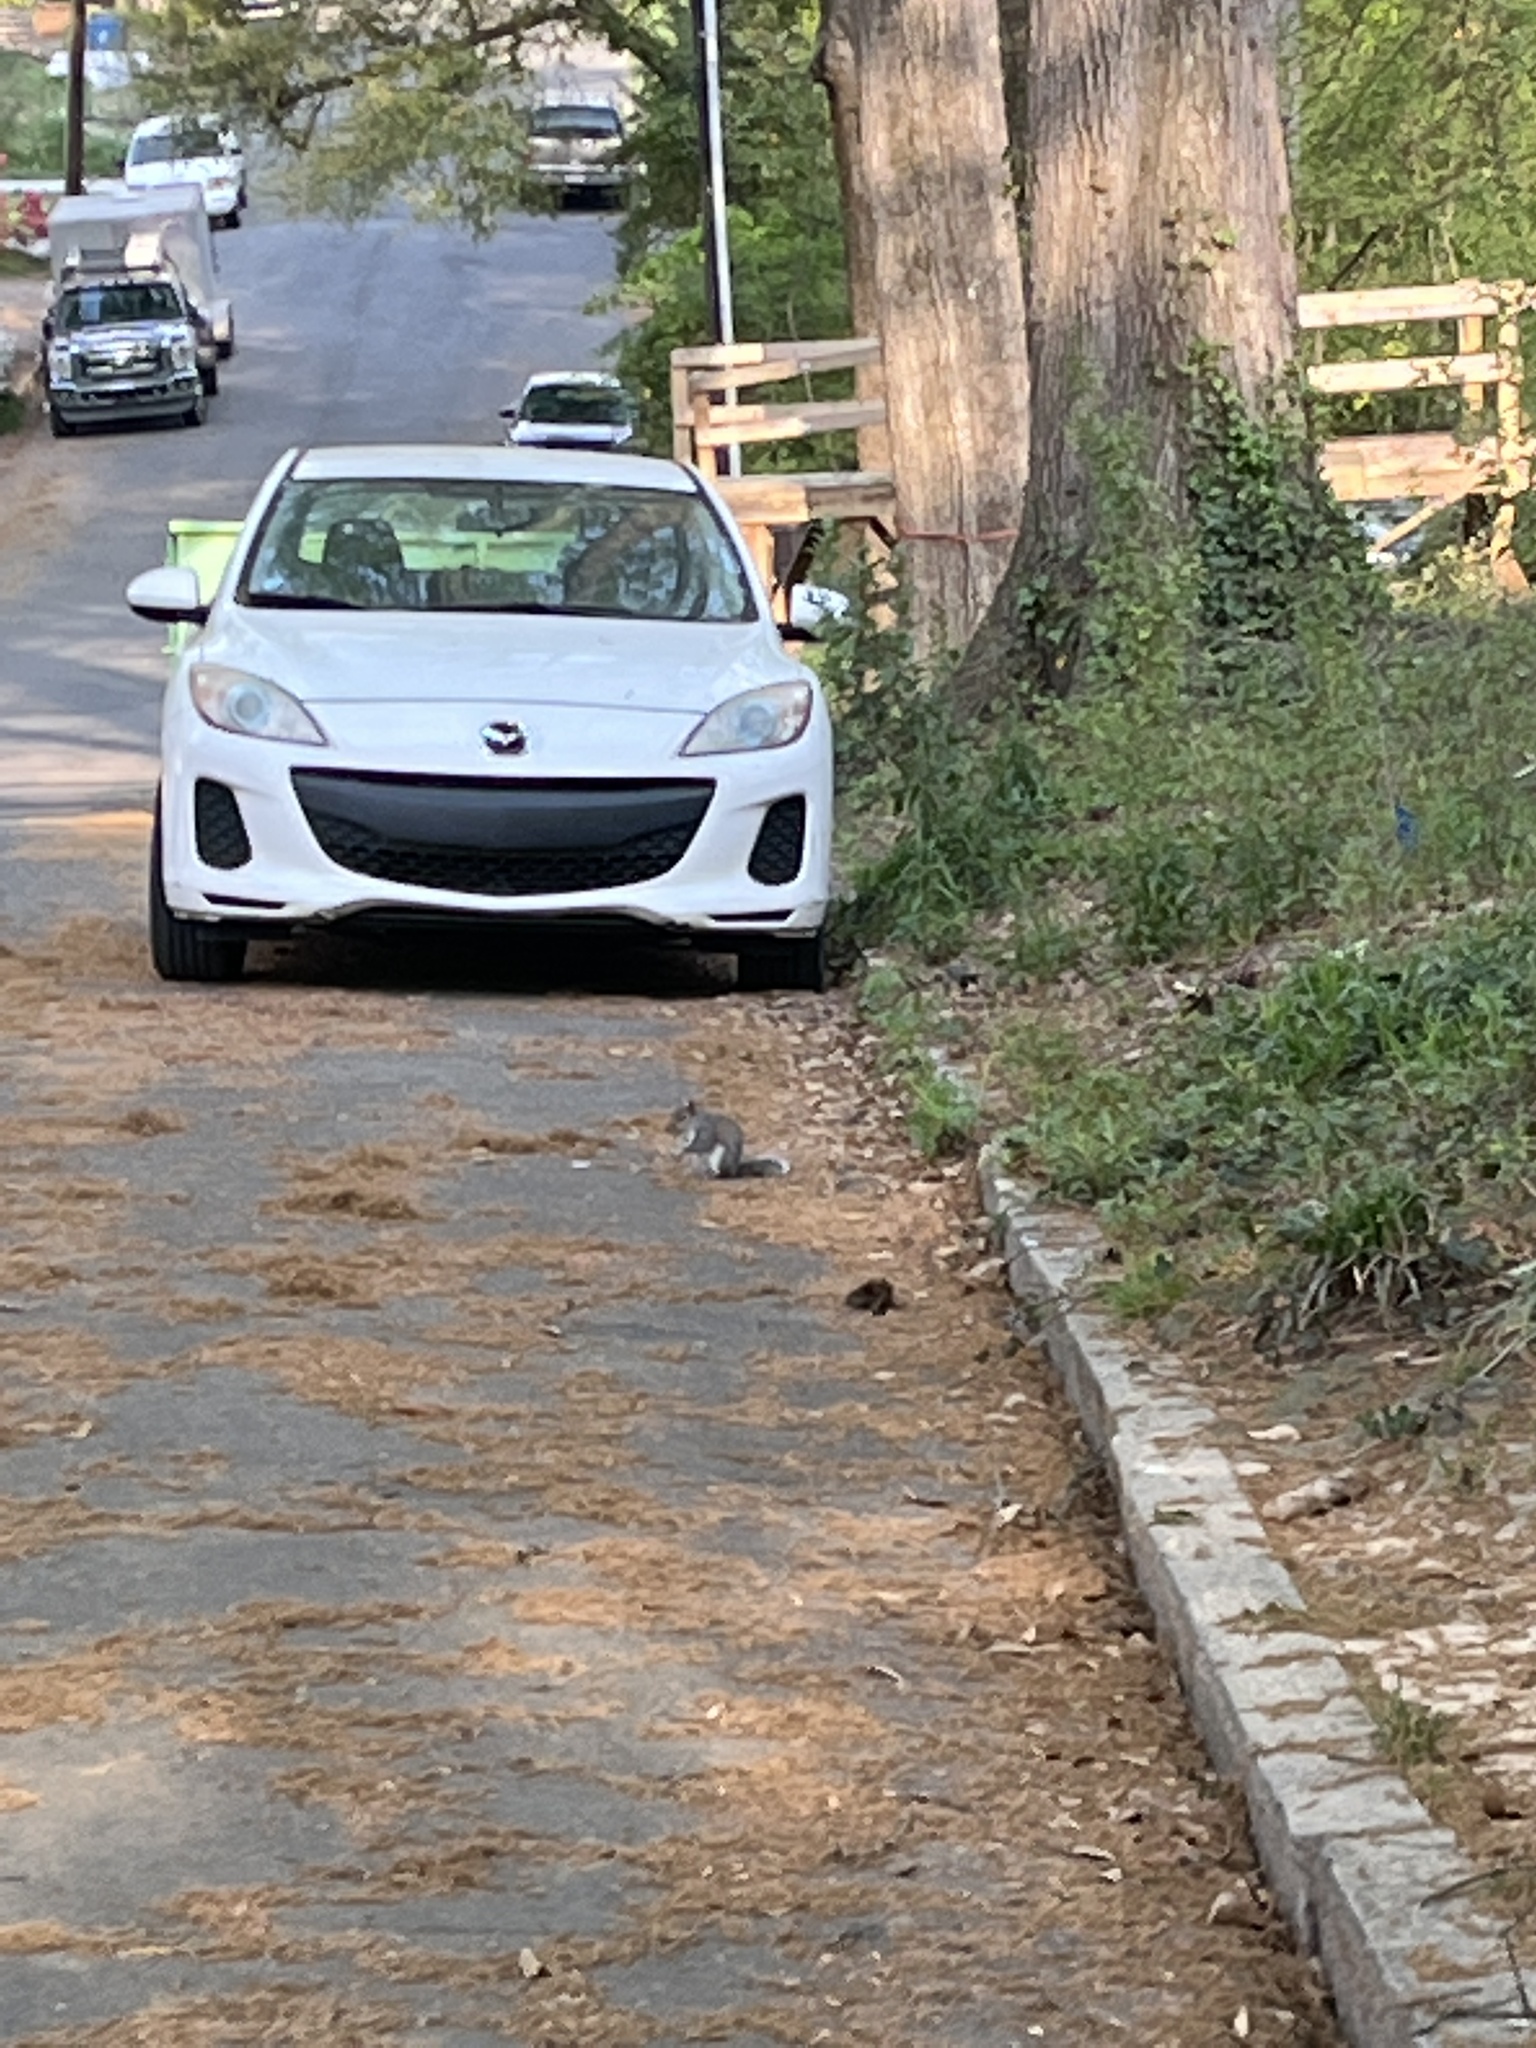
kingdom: Animalia
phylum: Chordata
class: Mammalia
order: Rodentia
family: Sciuridae
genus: Sciurus
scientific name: Sciurus carolinensis
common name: Eastern gray squirrel
